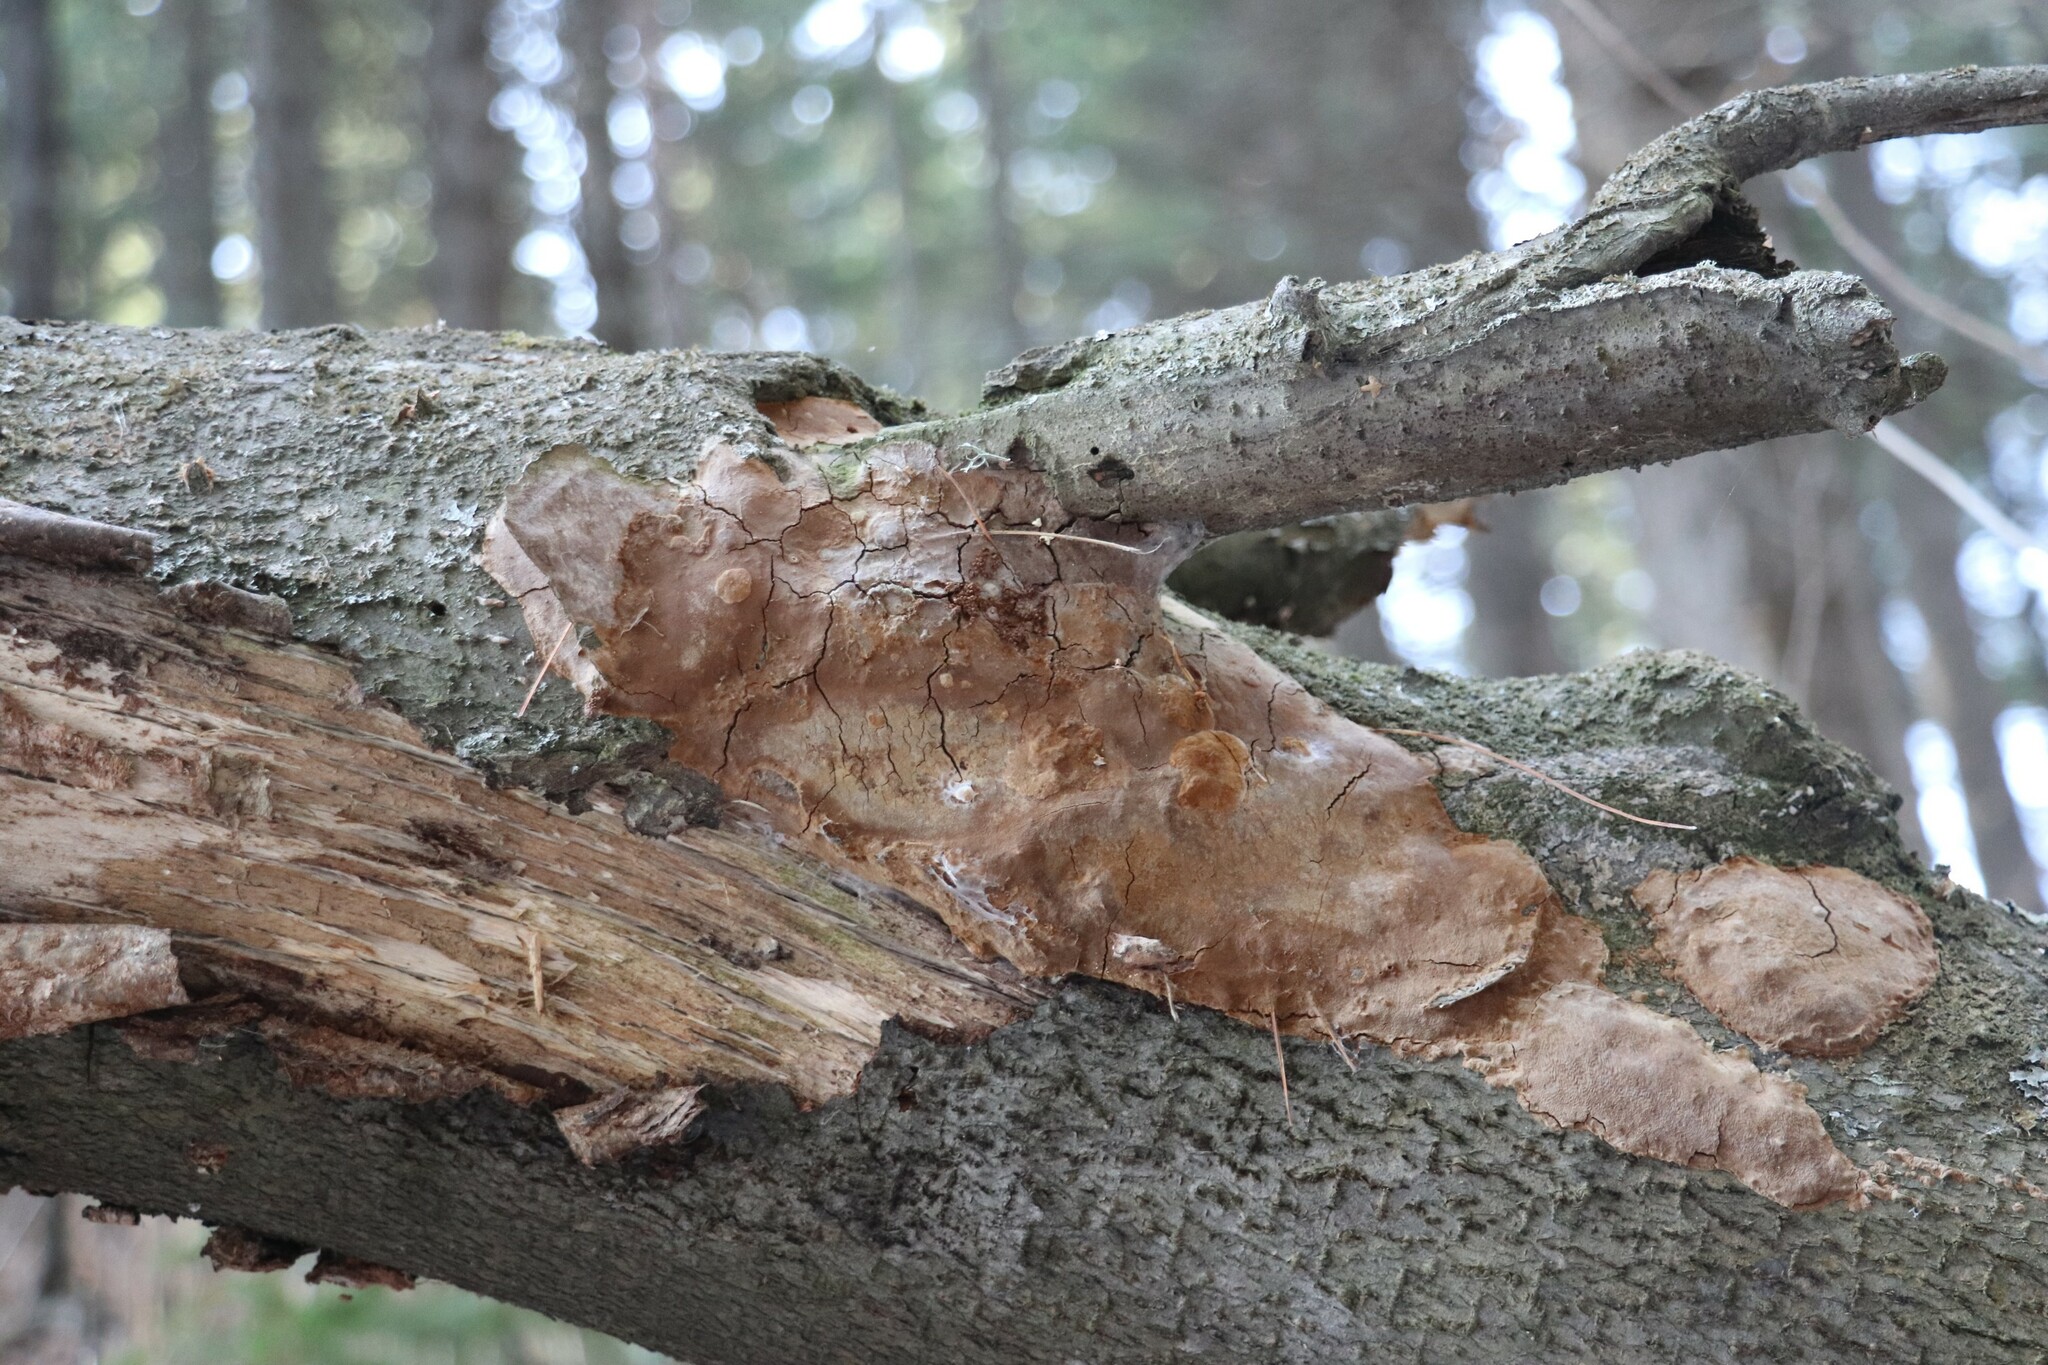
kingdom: Fungi
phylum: Basidiomycota
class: Agaricomycetes
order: Hymenochaetales
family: Hymenochaetaceae
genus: Fomitiporia
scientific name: Fomitiporia punctata
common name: Elbowpatch crust
